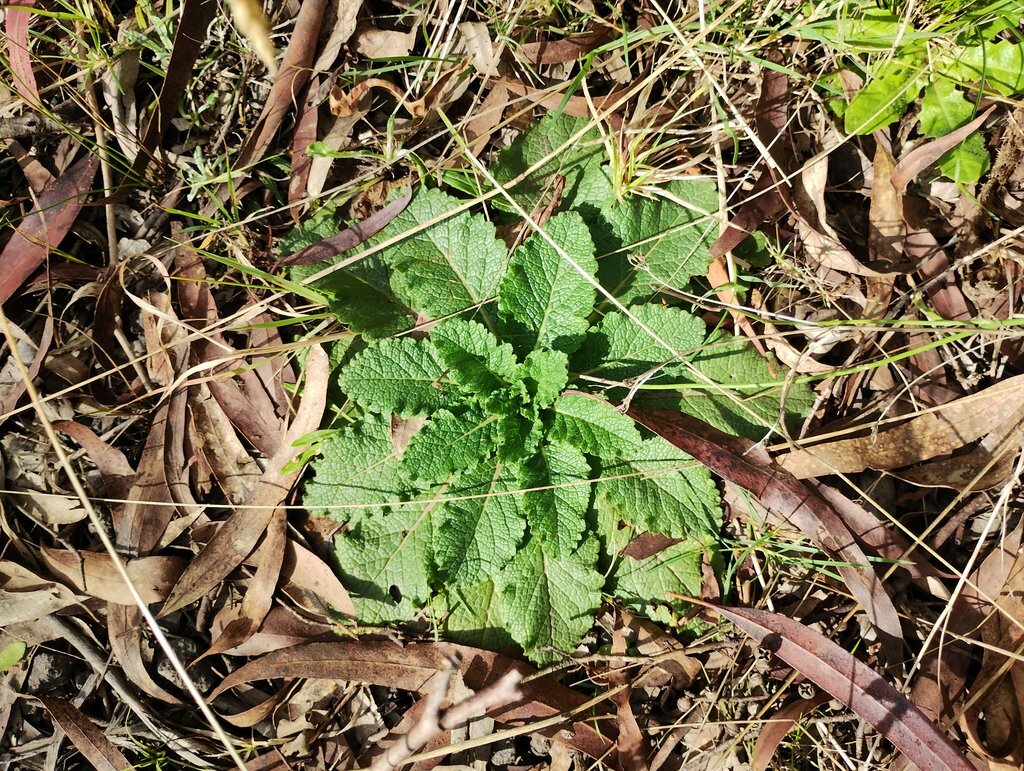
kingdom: Plantae
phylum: Tracheophyta
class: Magnoliopsida
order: Lamiales
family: Scrophulariaceae
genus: Verbascum
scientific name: Verbascum virgatum
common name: Twiggy mullein
